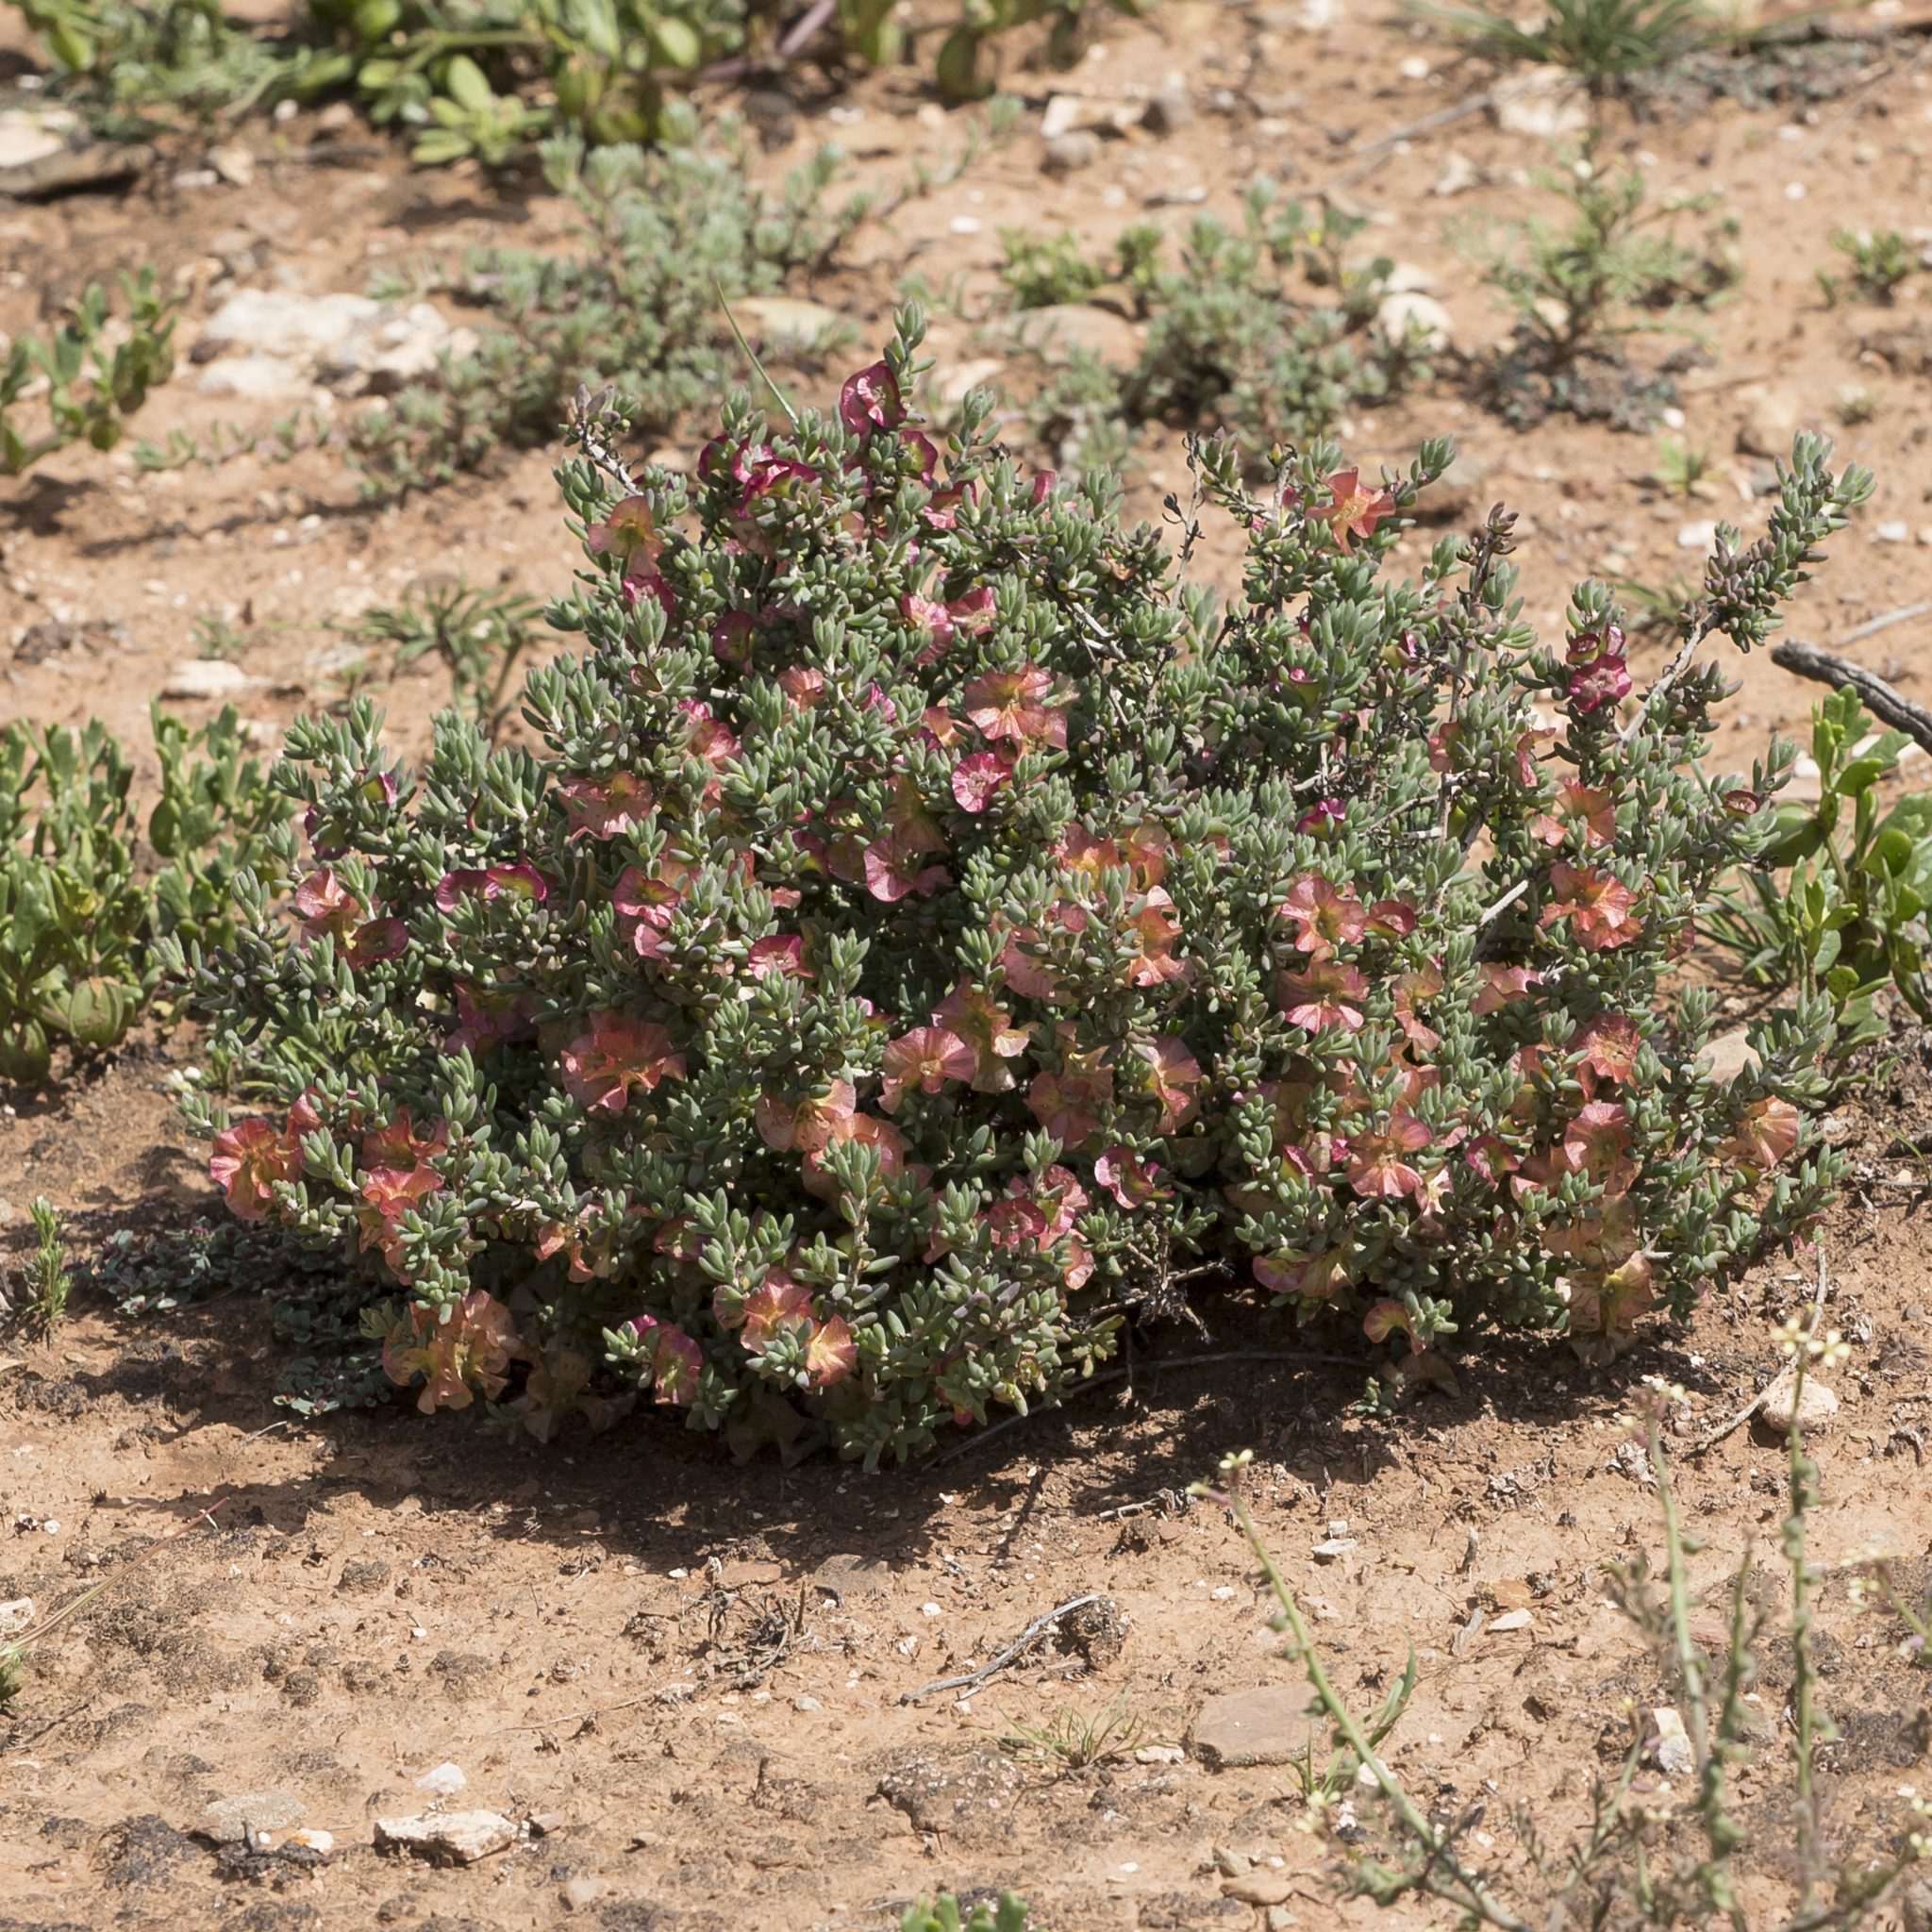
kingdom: Plantae
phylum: Tracheophyta
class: Magnoliopsida
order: Caryophyllales
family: Amaranthaceae
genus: Maireana
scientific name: Maireana turbinata
